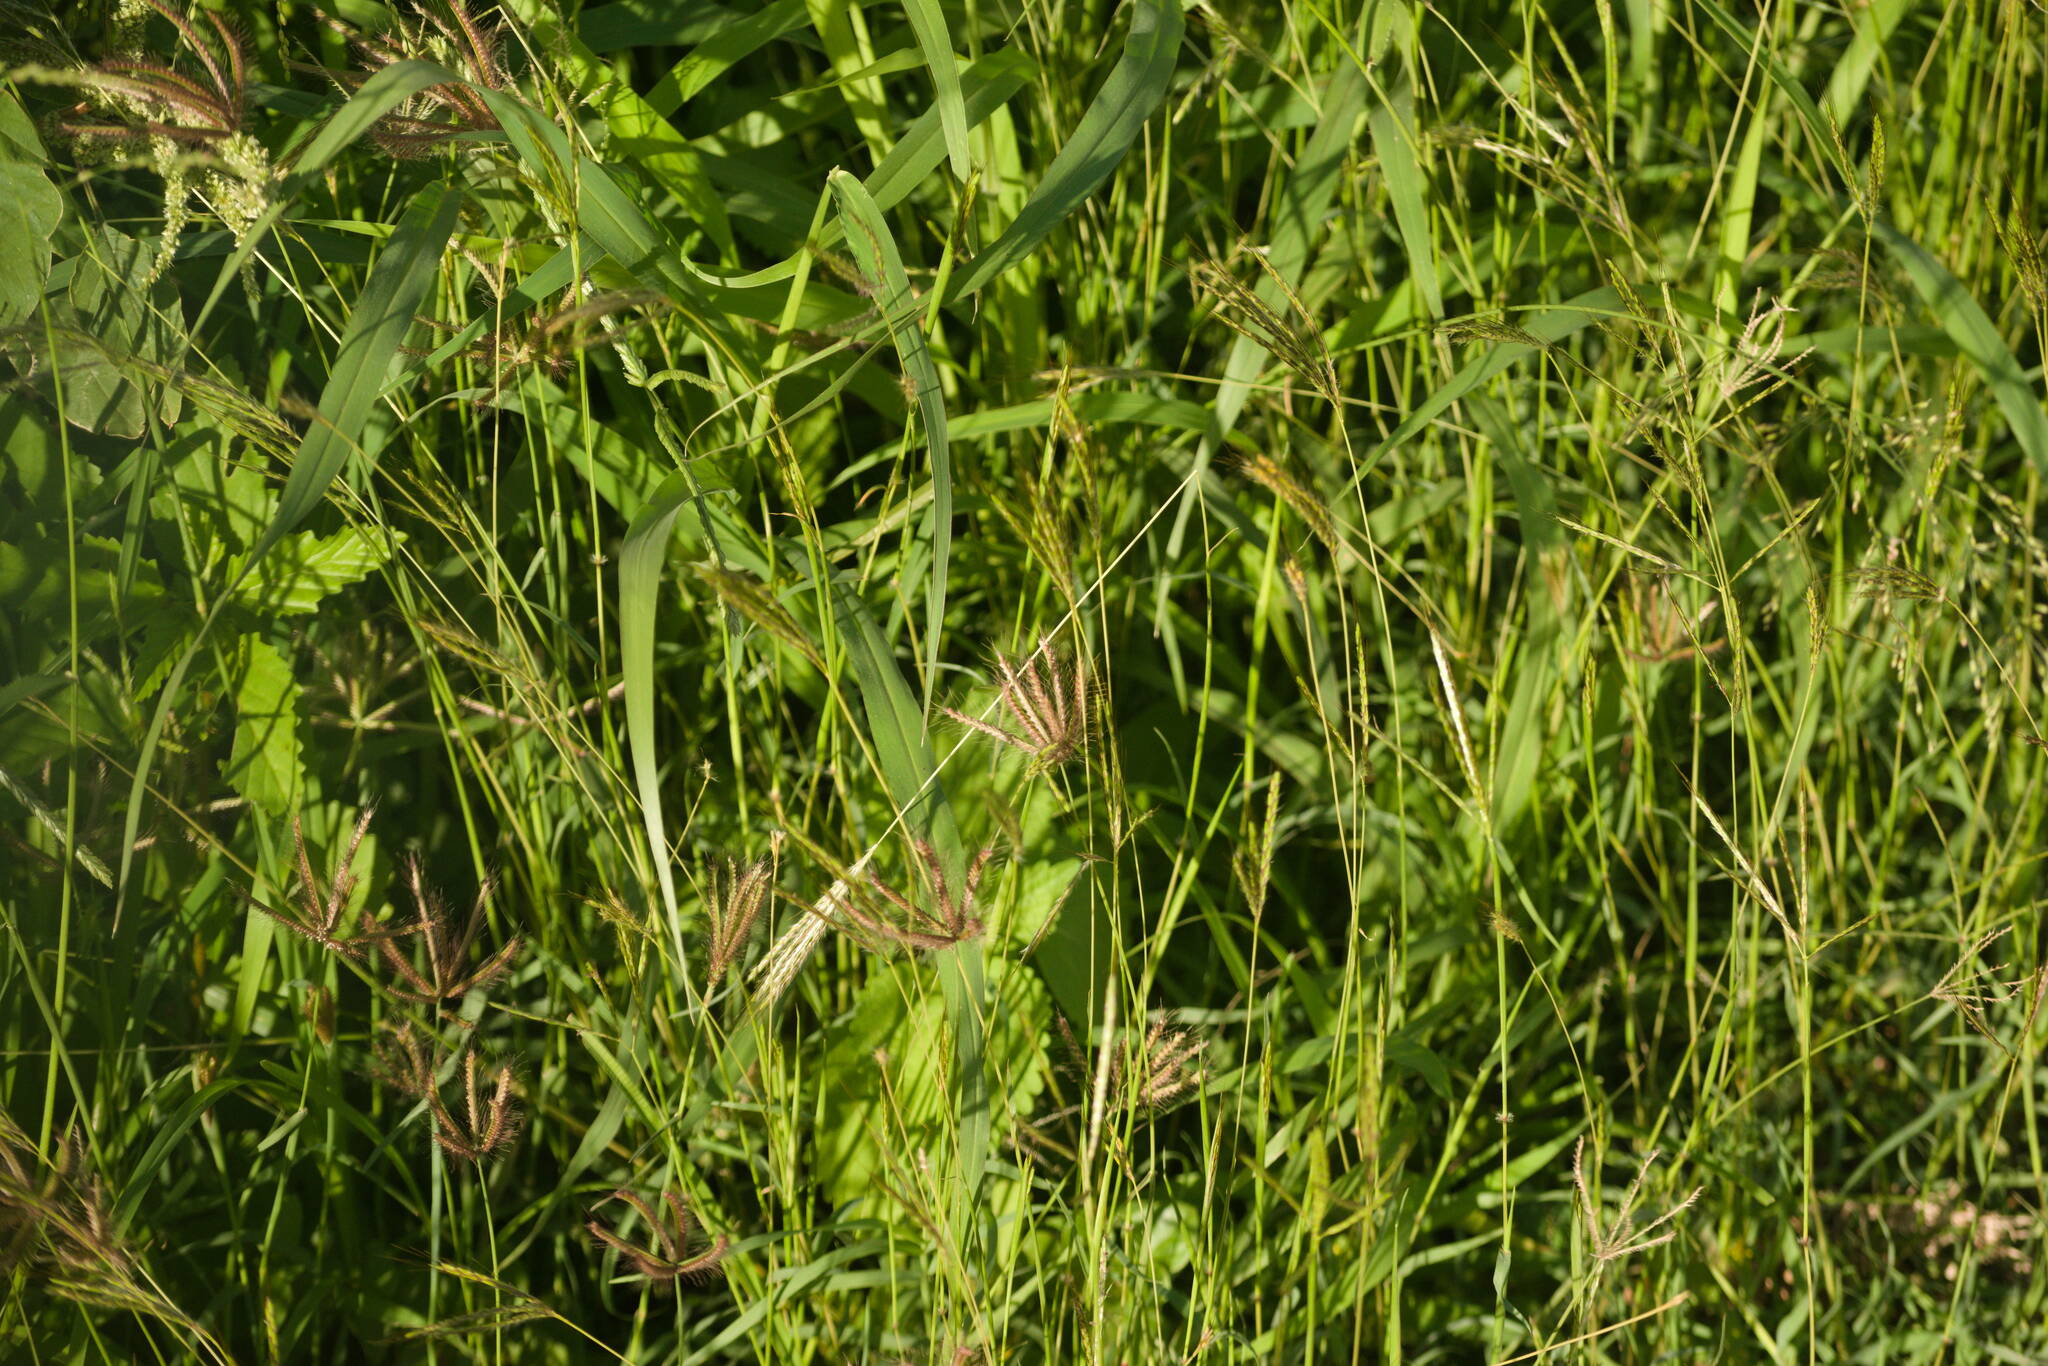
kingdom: Plantae
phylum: Tracheophyta
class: Liliopsida
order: Poales
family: Poaceae
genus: Chloris
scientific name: Chloris barbata
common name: Swollen fingergrass
